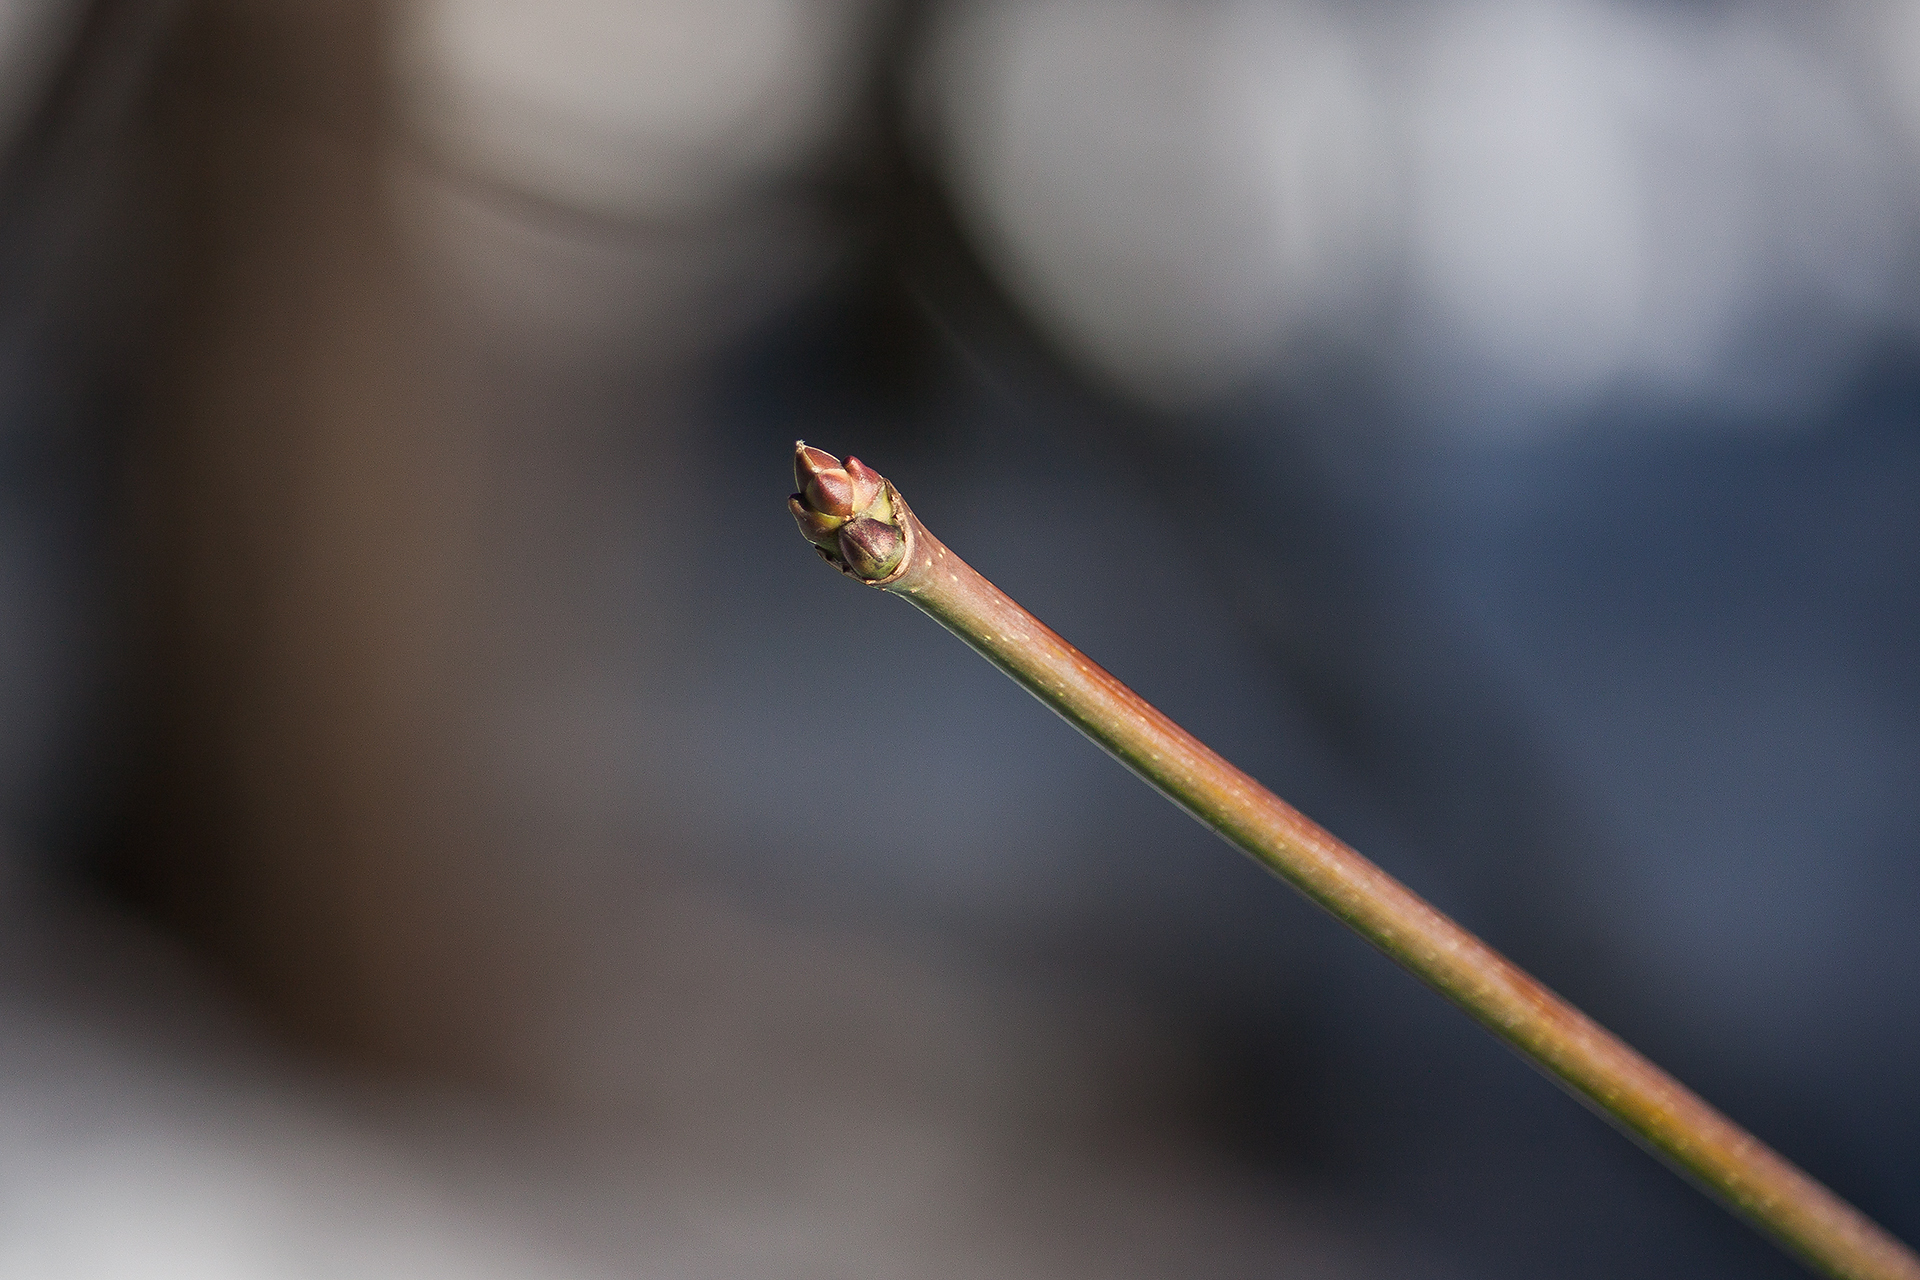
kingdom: Plantae
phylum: Tracheophyta
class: Magnoliopsida
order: Sapindales
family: Sapindaceae
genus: Acer
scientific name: Acer macrophyllum
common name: Oregon maple
